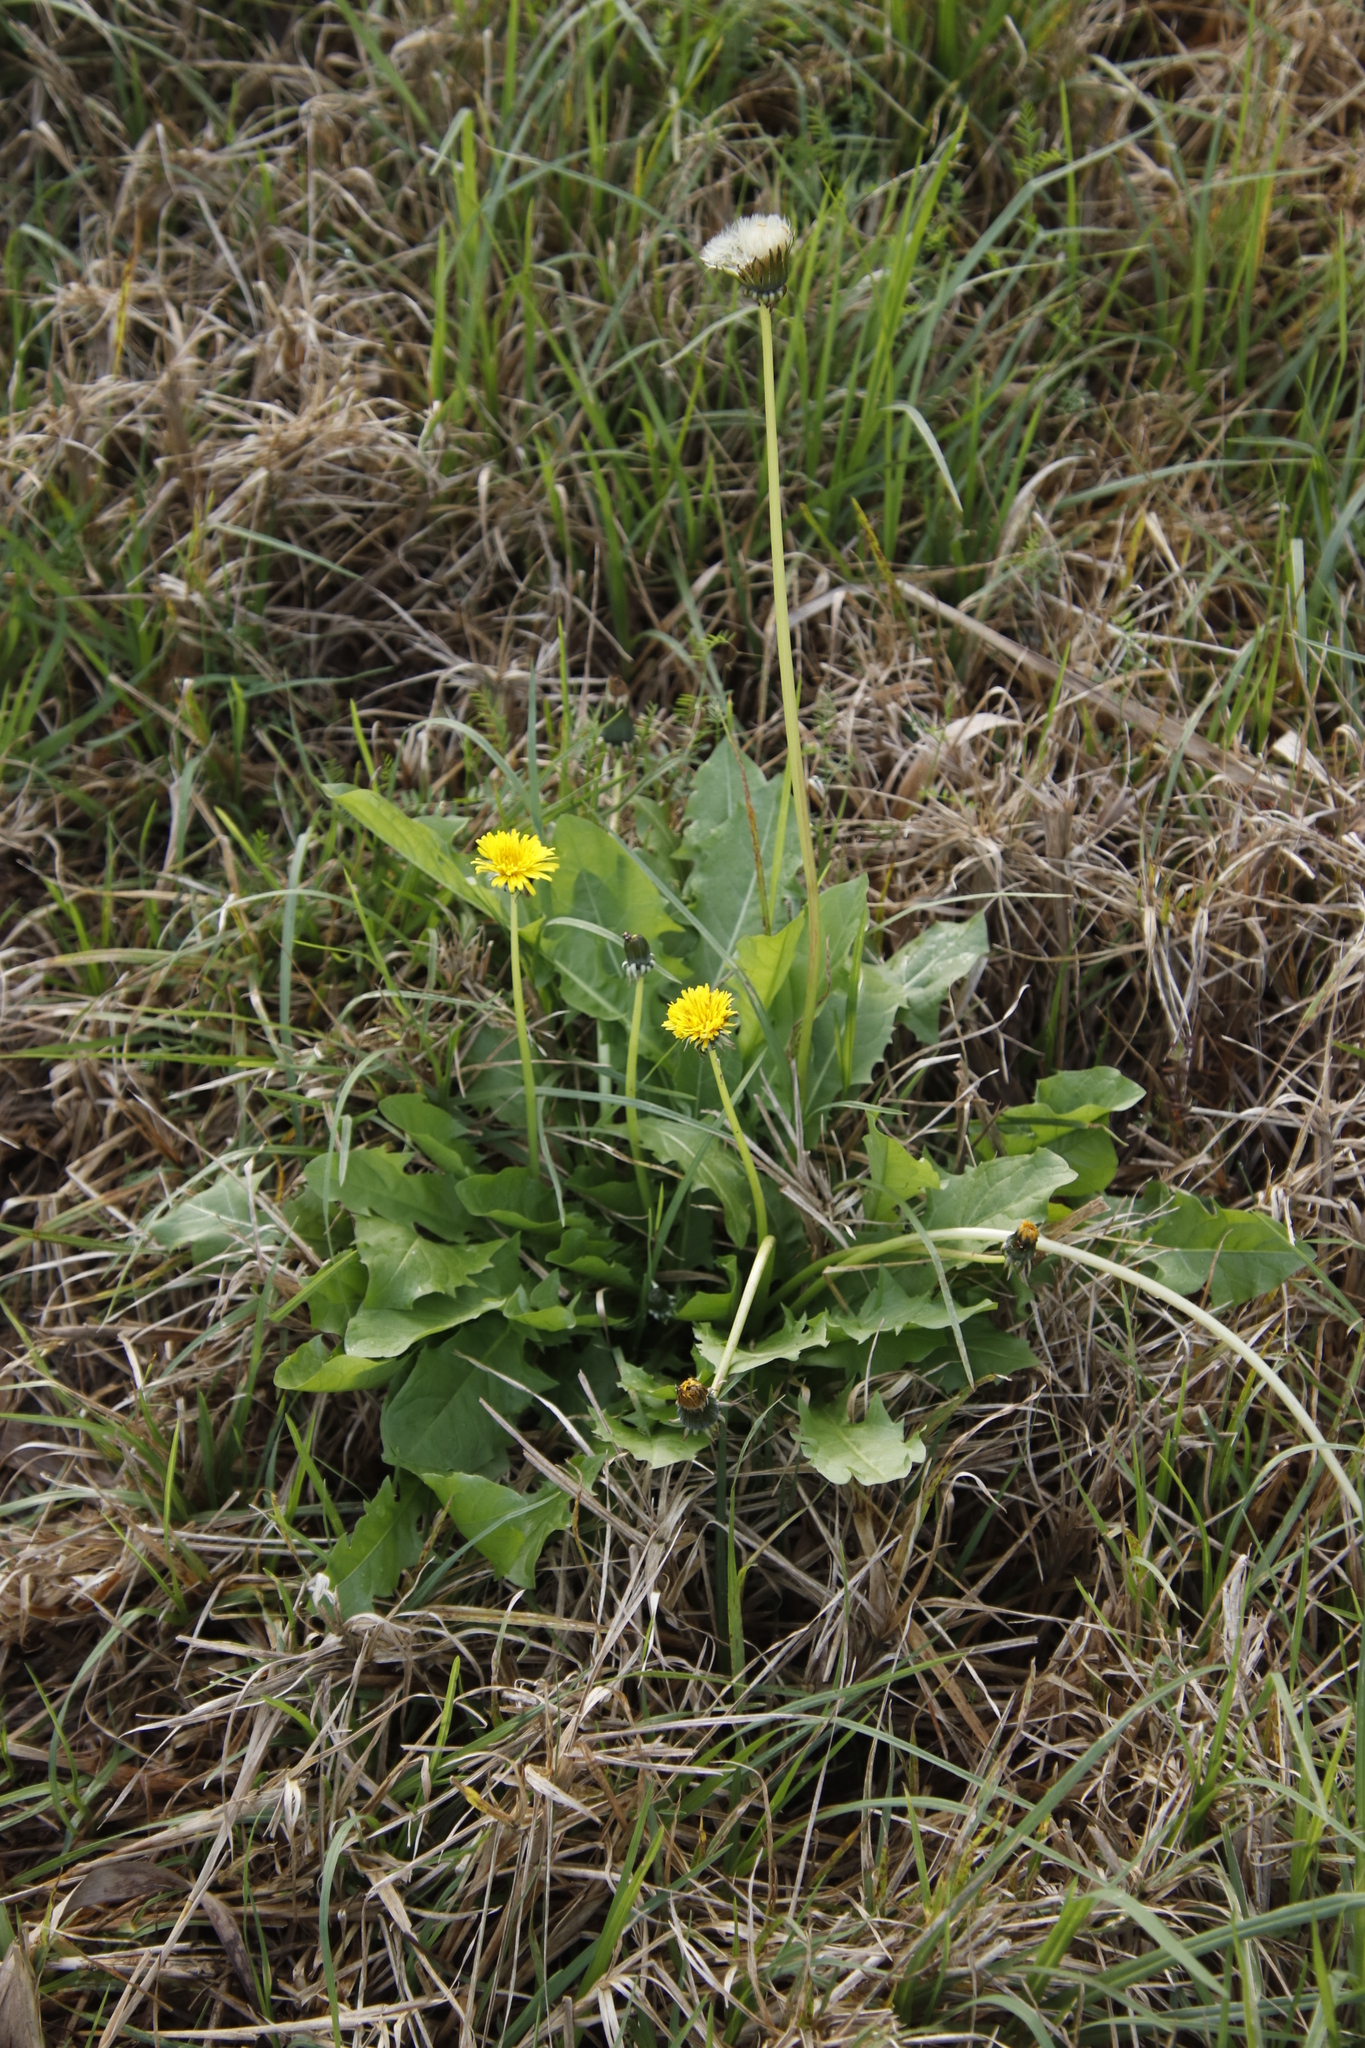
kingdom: Plantae
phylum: Tracheophyta
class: Magnoliopsida
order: Asterales
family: Asteraceae
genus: Taraxacum
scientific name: Taraxacum officinale
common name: Common dandelion
